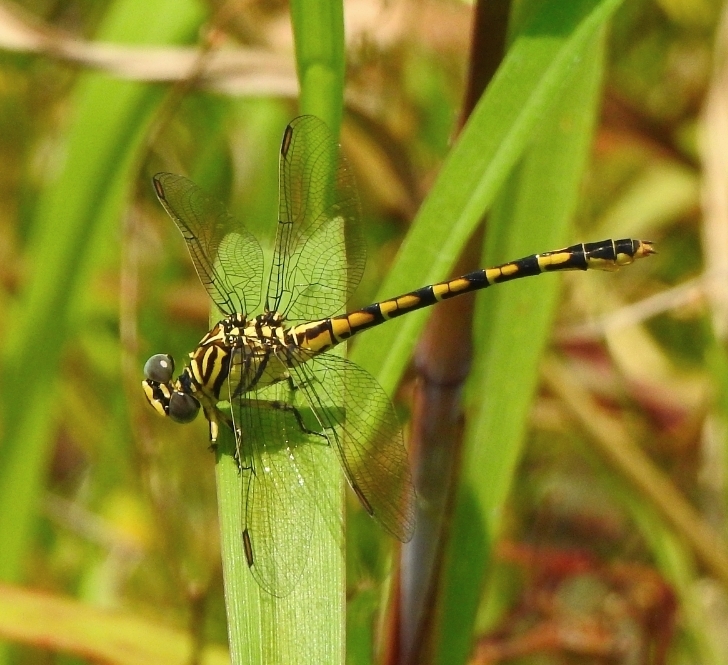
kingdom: Animalia
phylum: Arthropoda
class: Insecta
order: Odonata
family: Gomphidae
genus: Paragomphus
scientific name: Paragomphus lineatus
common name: Lined hooktail
